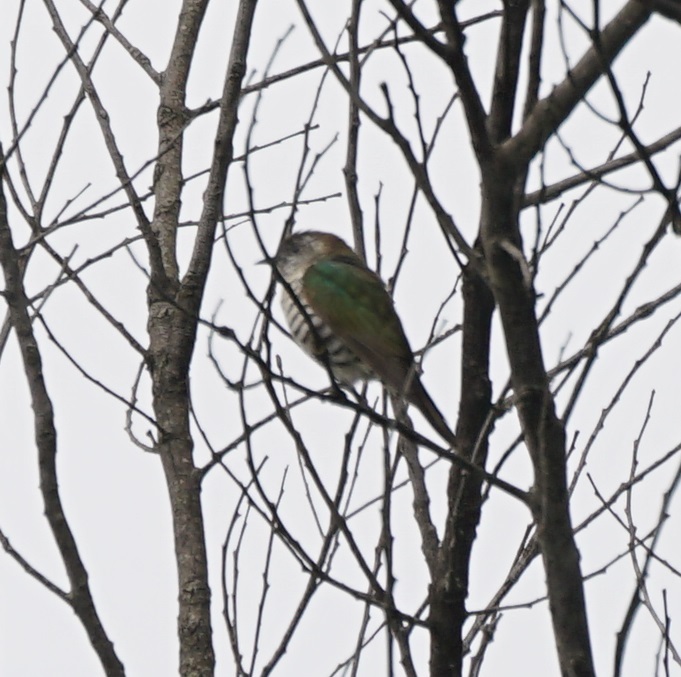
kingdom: Animalia
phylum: Chordata
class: Aves
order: Cuculiformes
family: Cuculidae
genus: Chrysococcyx
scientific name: Chrysococcyx lucidus
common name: Shining bronze cuckoo
